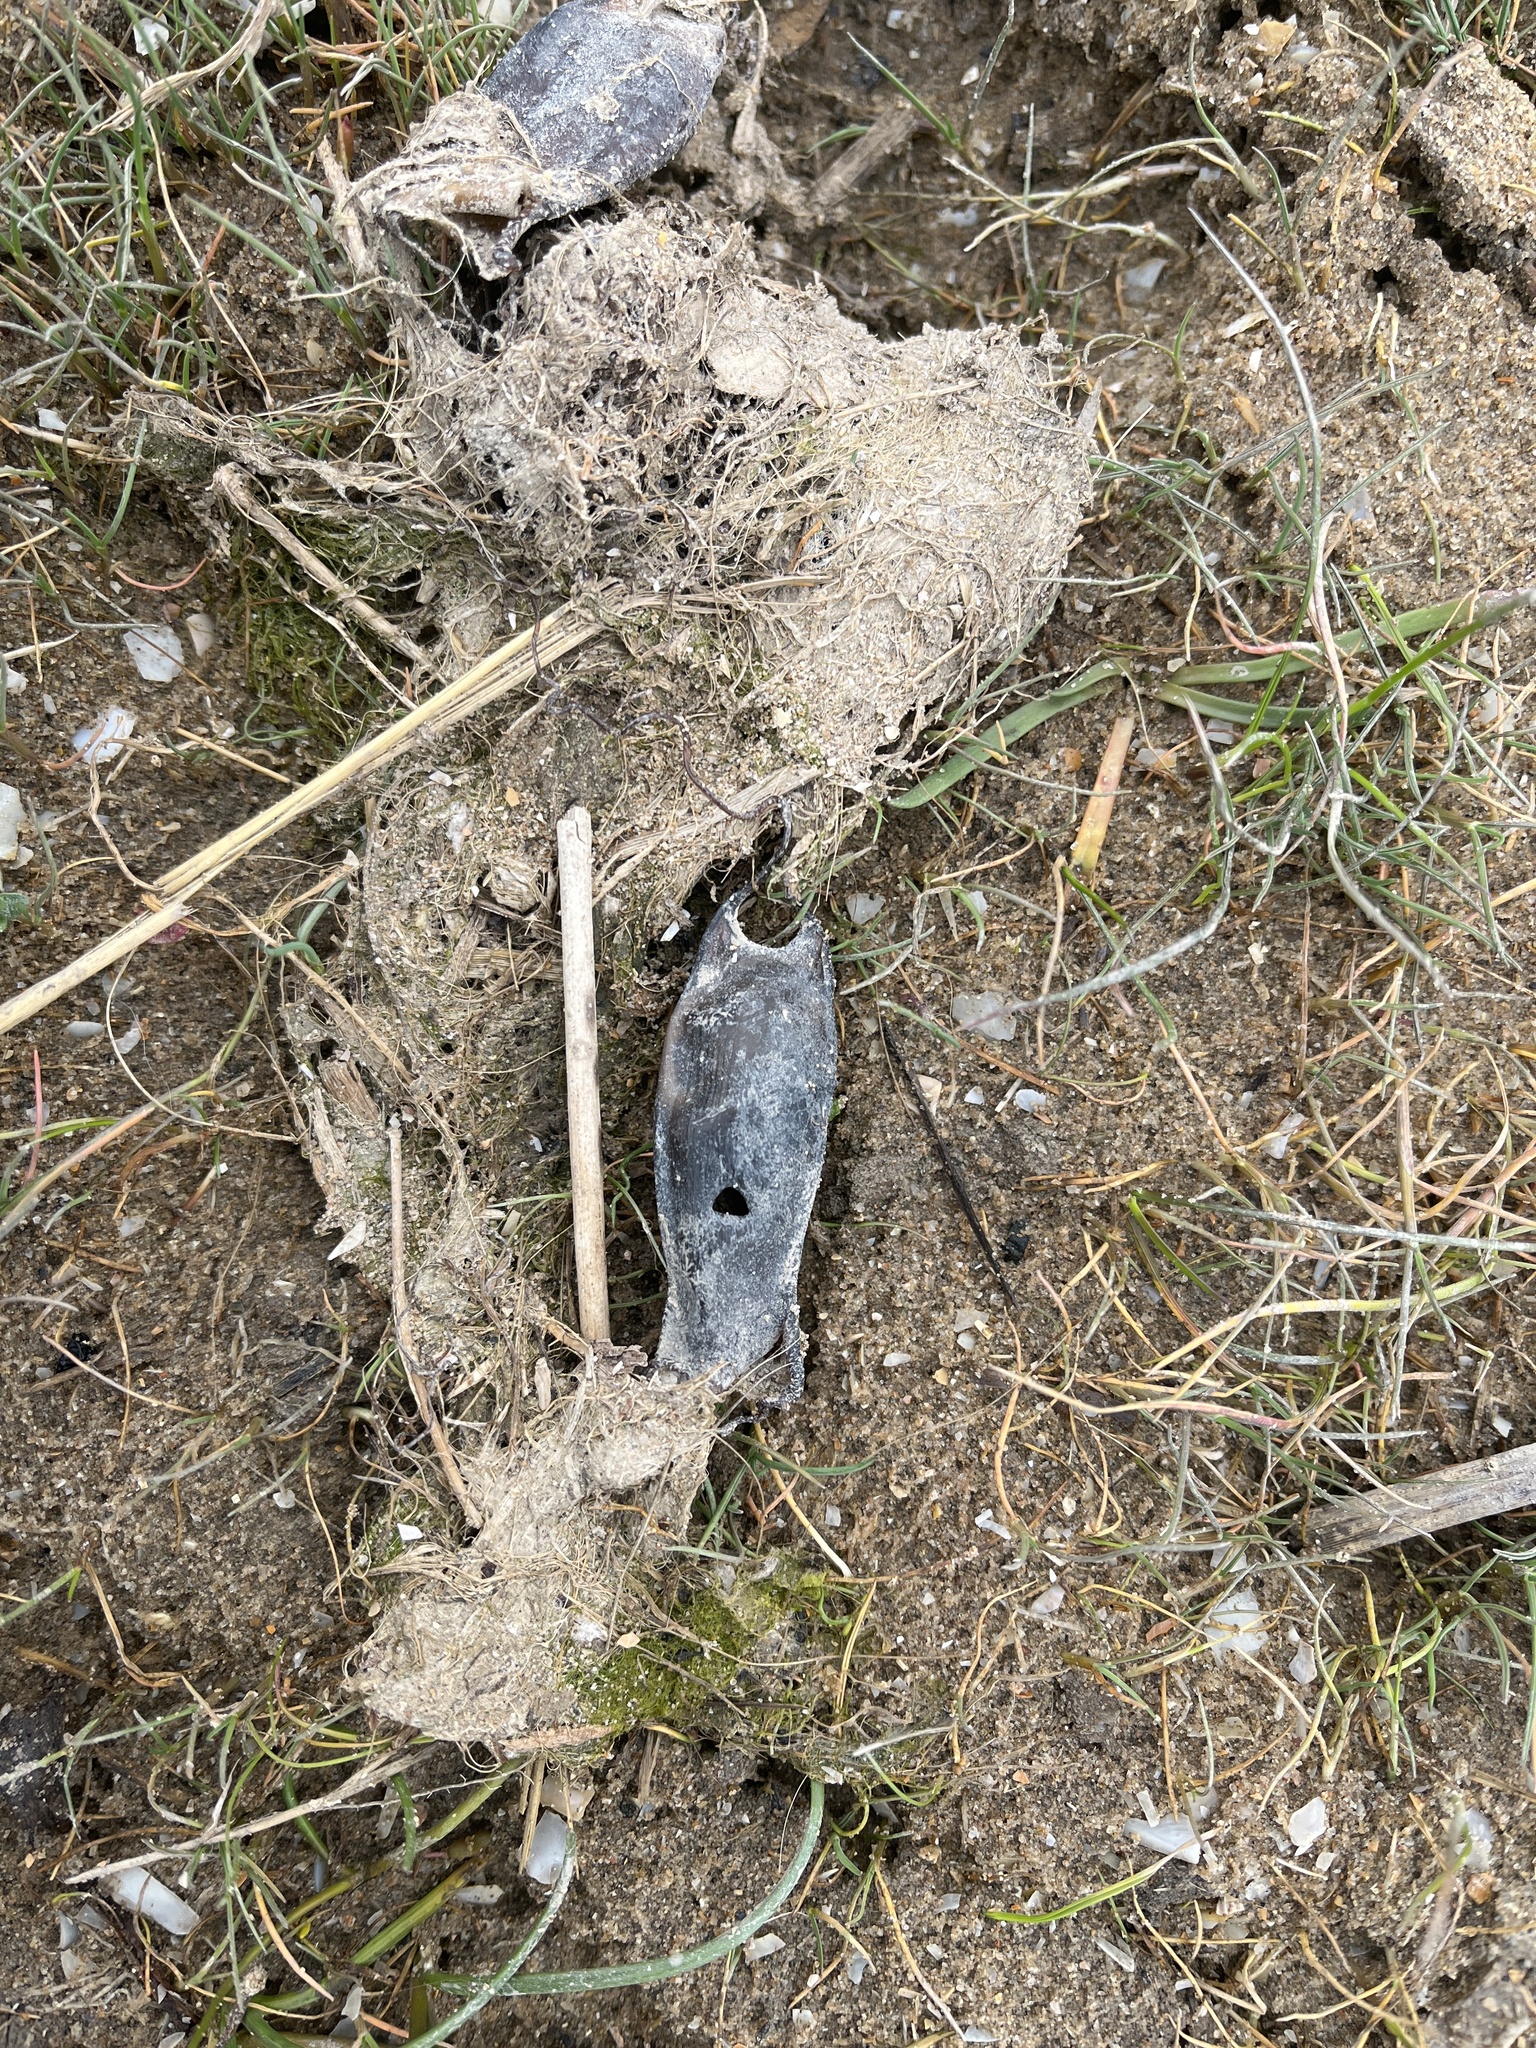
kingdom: Animalia
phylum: Chordata
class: Elasmobranchii
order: Carcharhiniformes
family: Scyliorhinidae
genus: Scyliorhinus
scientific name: Scyliorhinus stellaris
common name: Nursehound
